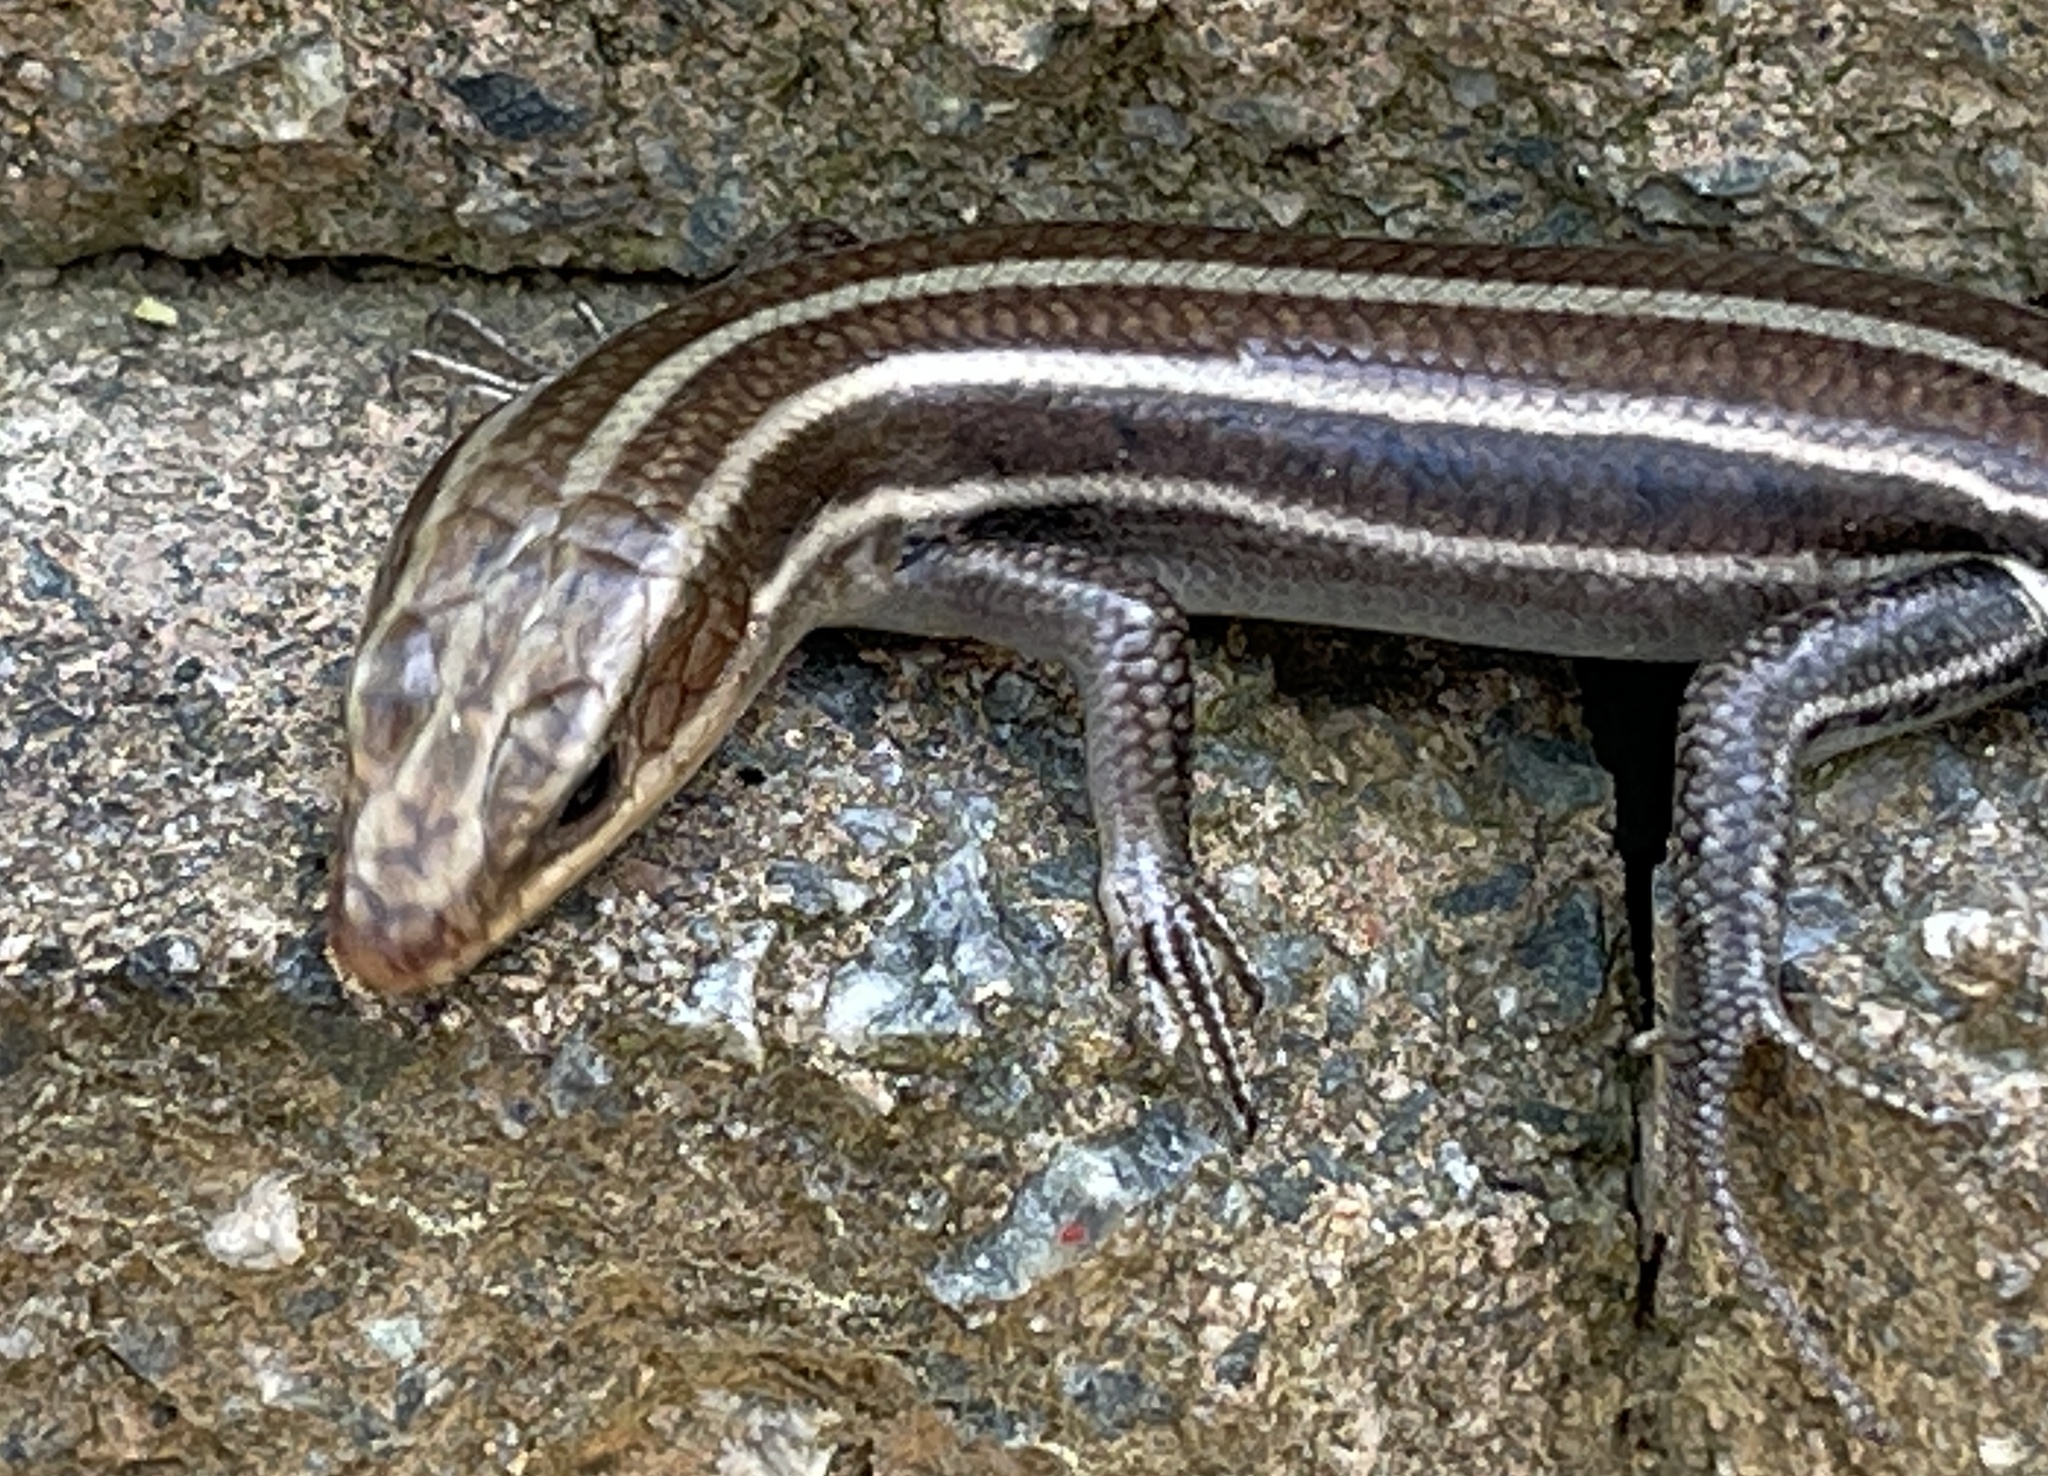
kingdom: Animalia
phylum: Chordata
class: Squamata
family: Scincidae
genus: Plestiodon
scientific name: Plestiodon fasciatus
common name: Five-lined skink
